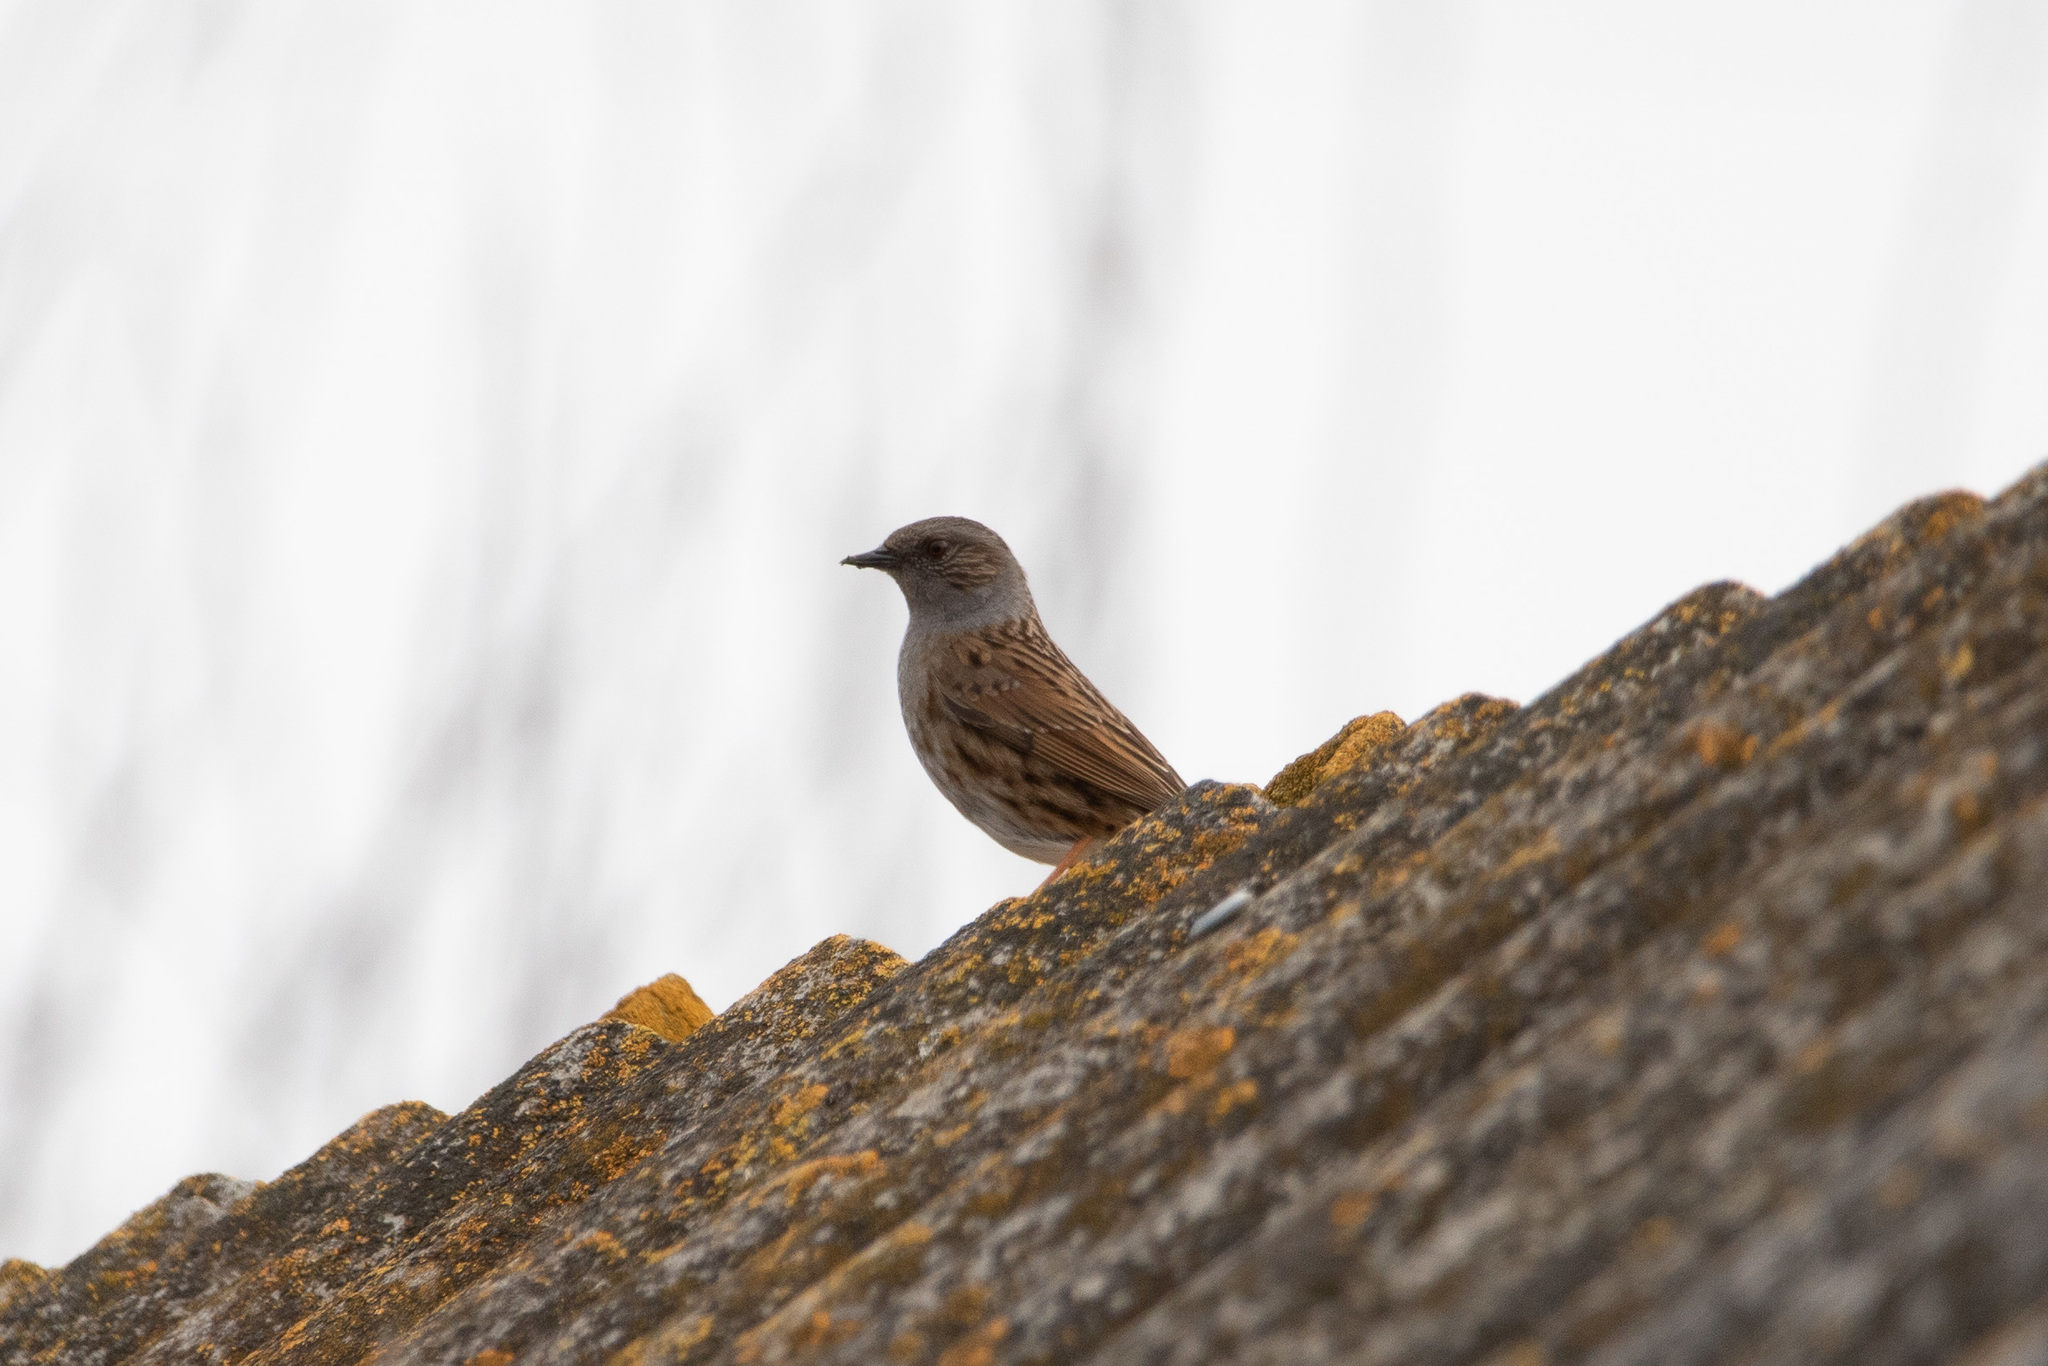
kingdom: Animalia
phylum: Chordata
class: Aves
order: Passeriformes
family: Prunellidae
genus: Prunella
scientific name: Prunella modularis
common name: Dunnock
